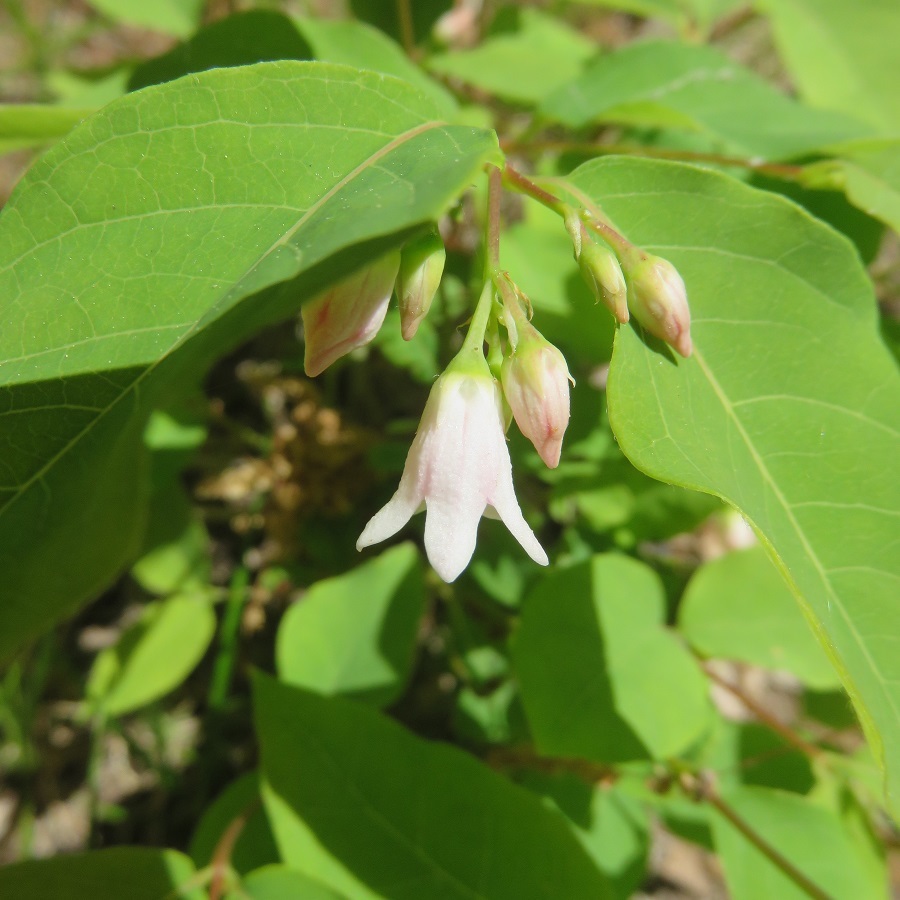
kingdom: Plantae
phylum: Tracheophyta
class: Magnoliopsida
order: Gentianales
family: Apocynaceae
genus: Apocynum
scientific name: Apocynum androsaemifolium
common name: Spreading dogbane
